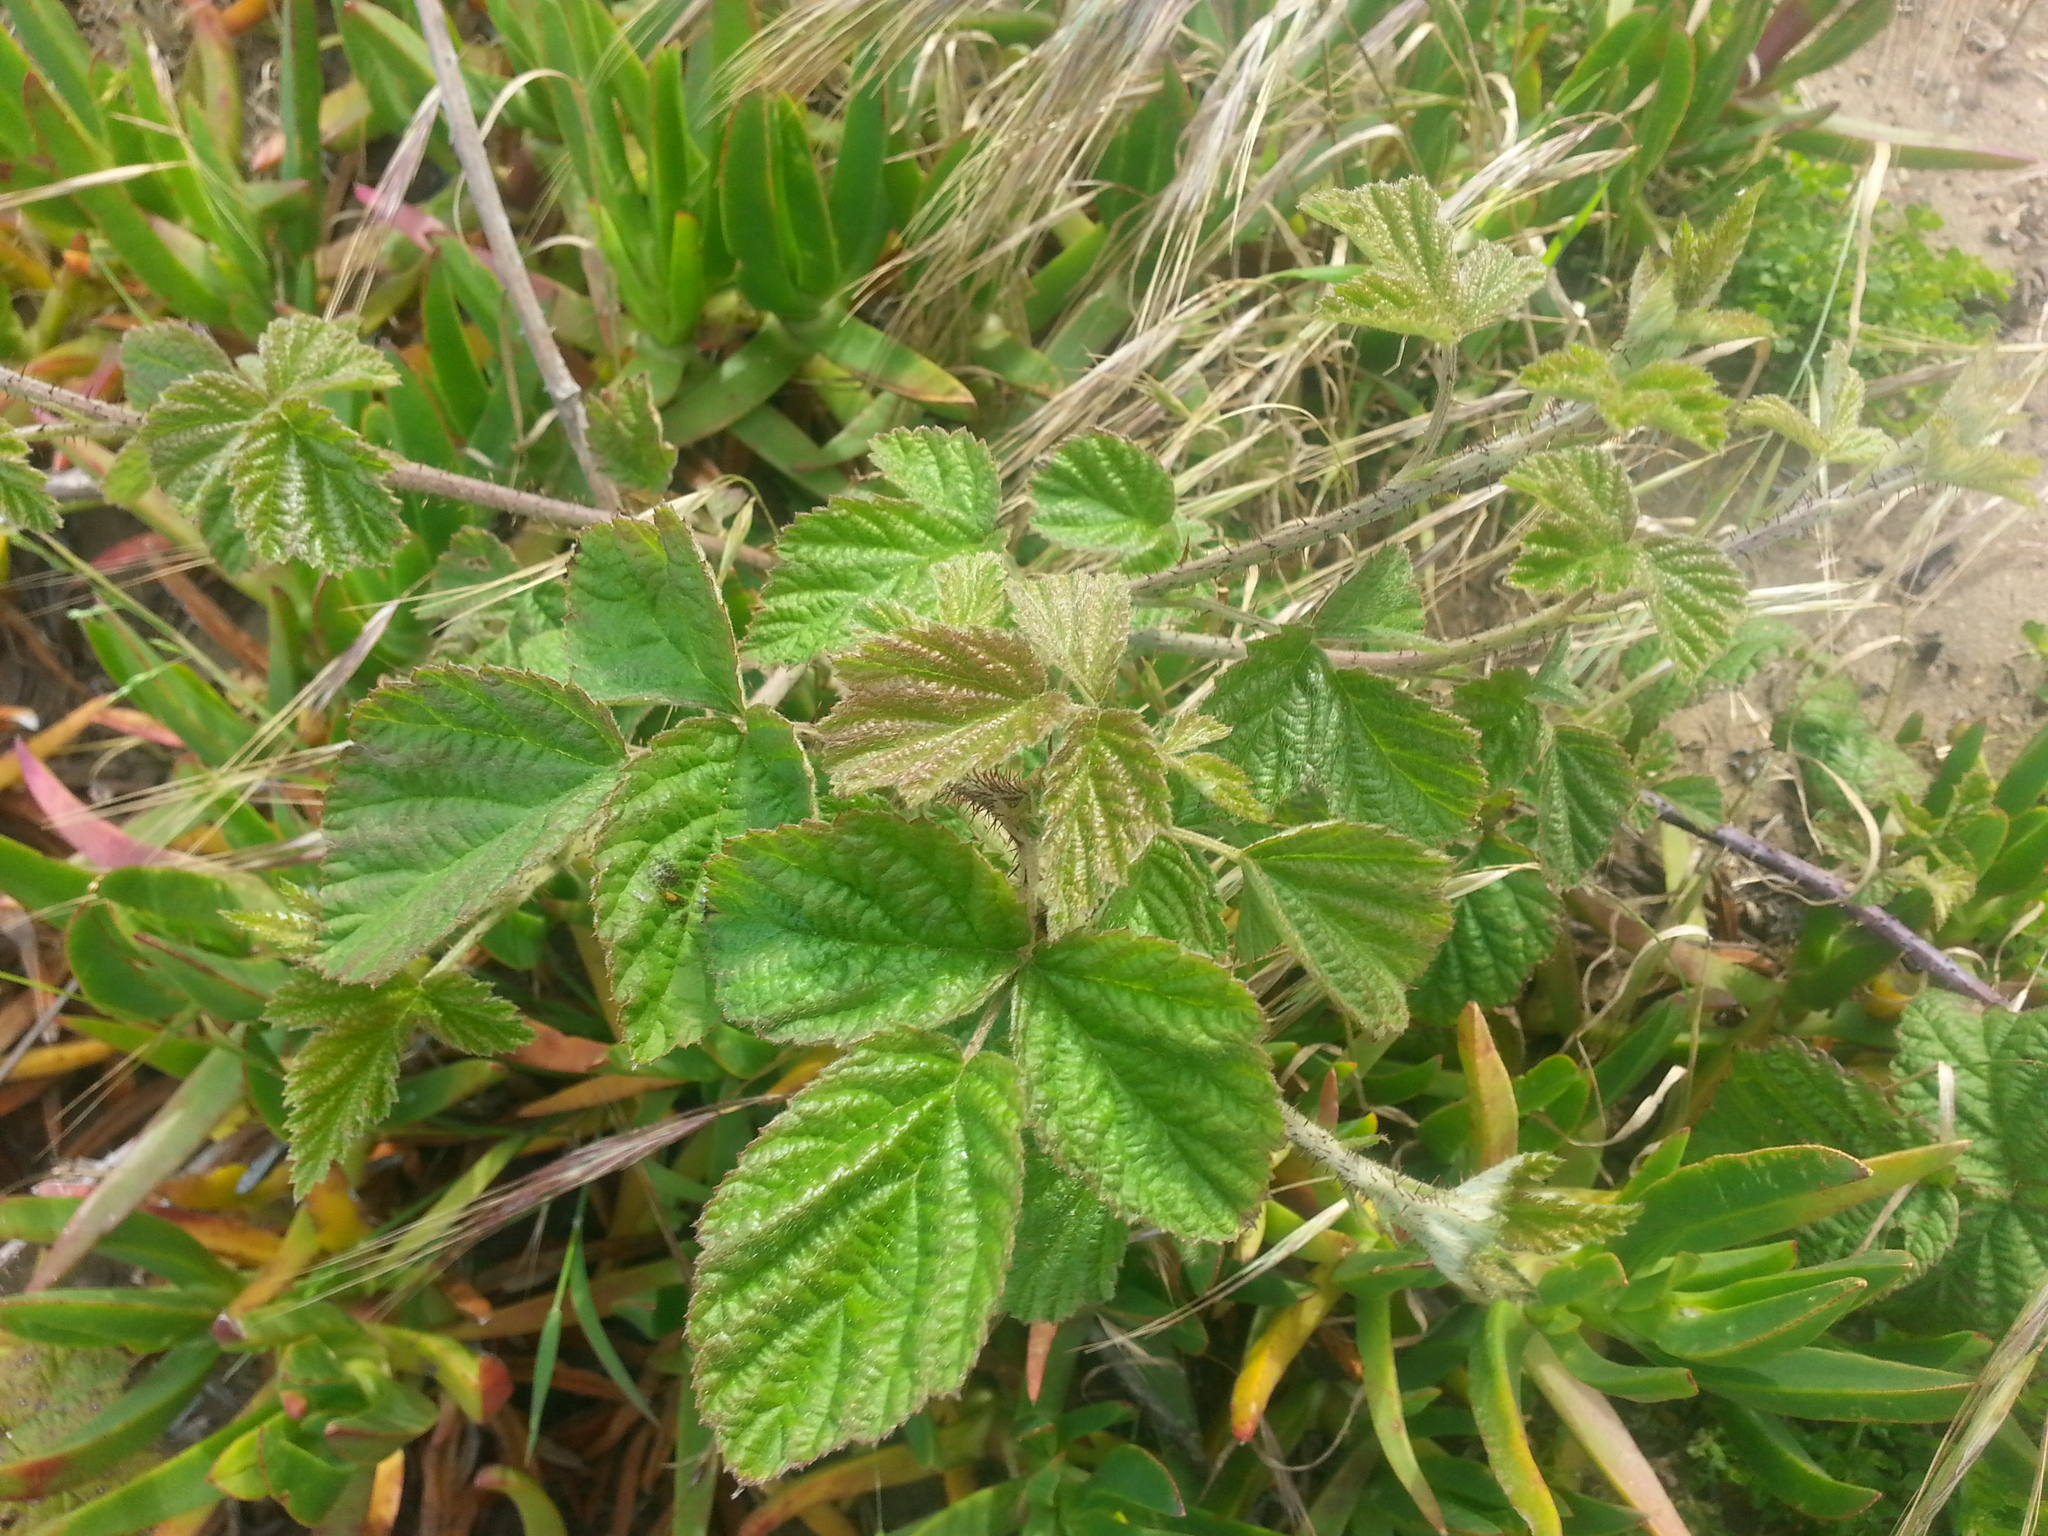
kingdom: Plantae
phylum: Tracheophyta
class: Magnoliopsida
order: Rosales
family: Rosaceae
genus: Rubus
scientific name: Rubus ursinus
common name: Pacific blackberry
